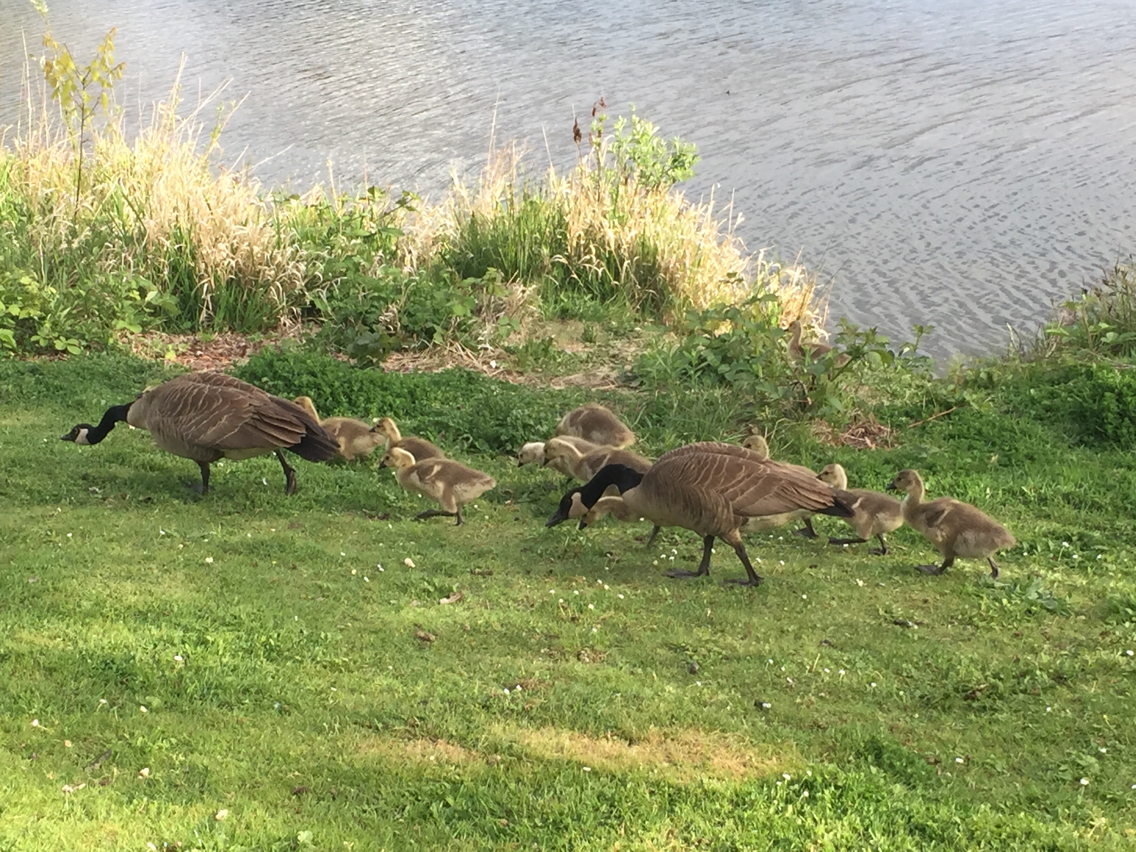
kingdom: Animalia
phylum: Chordata
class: Aves
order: Anseriformes
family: Anatidae
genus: Branta
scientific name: Branta canadensis
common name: Canada goose
